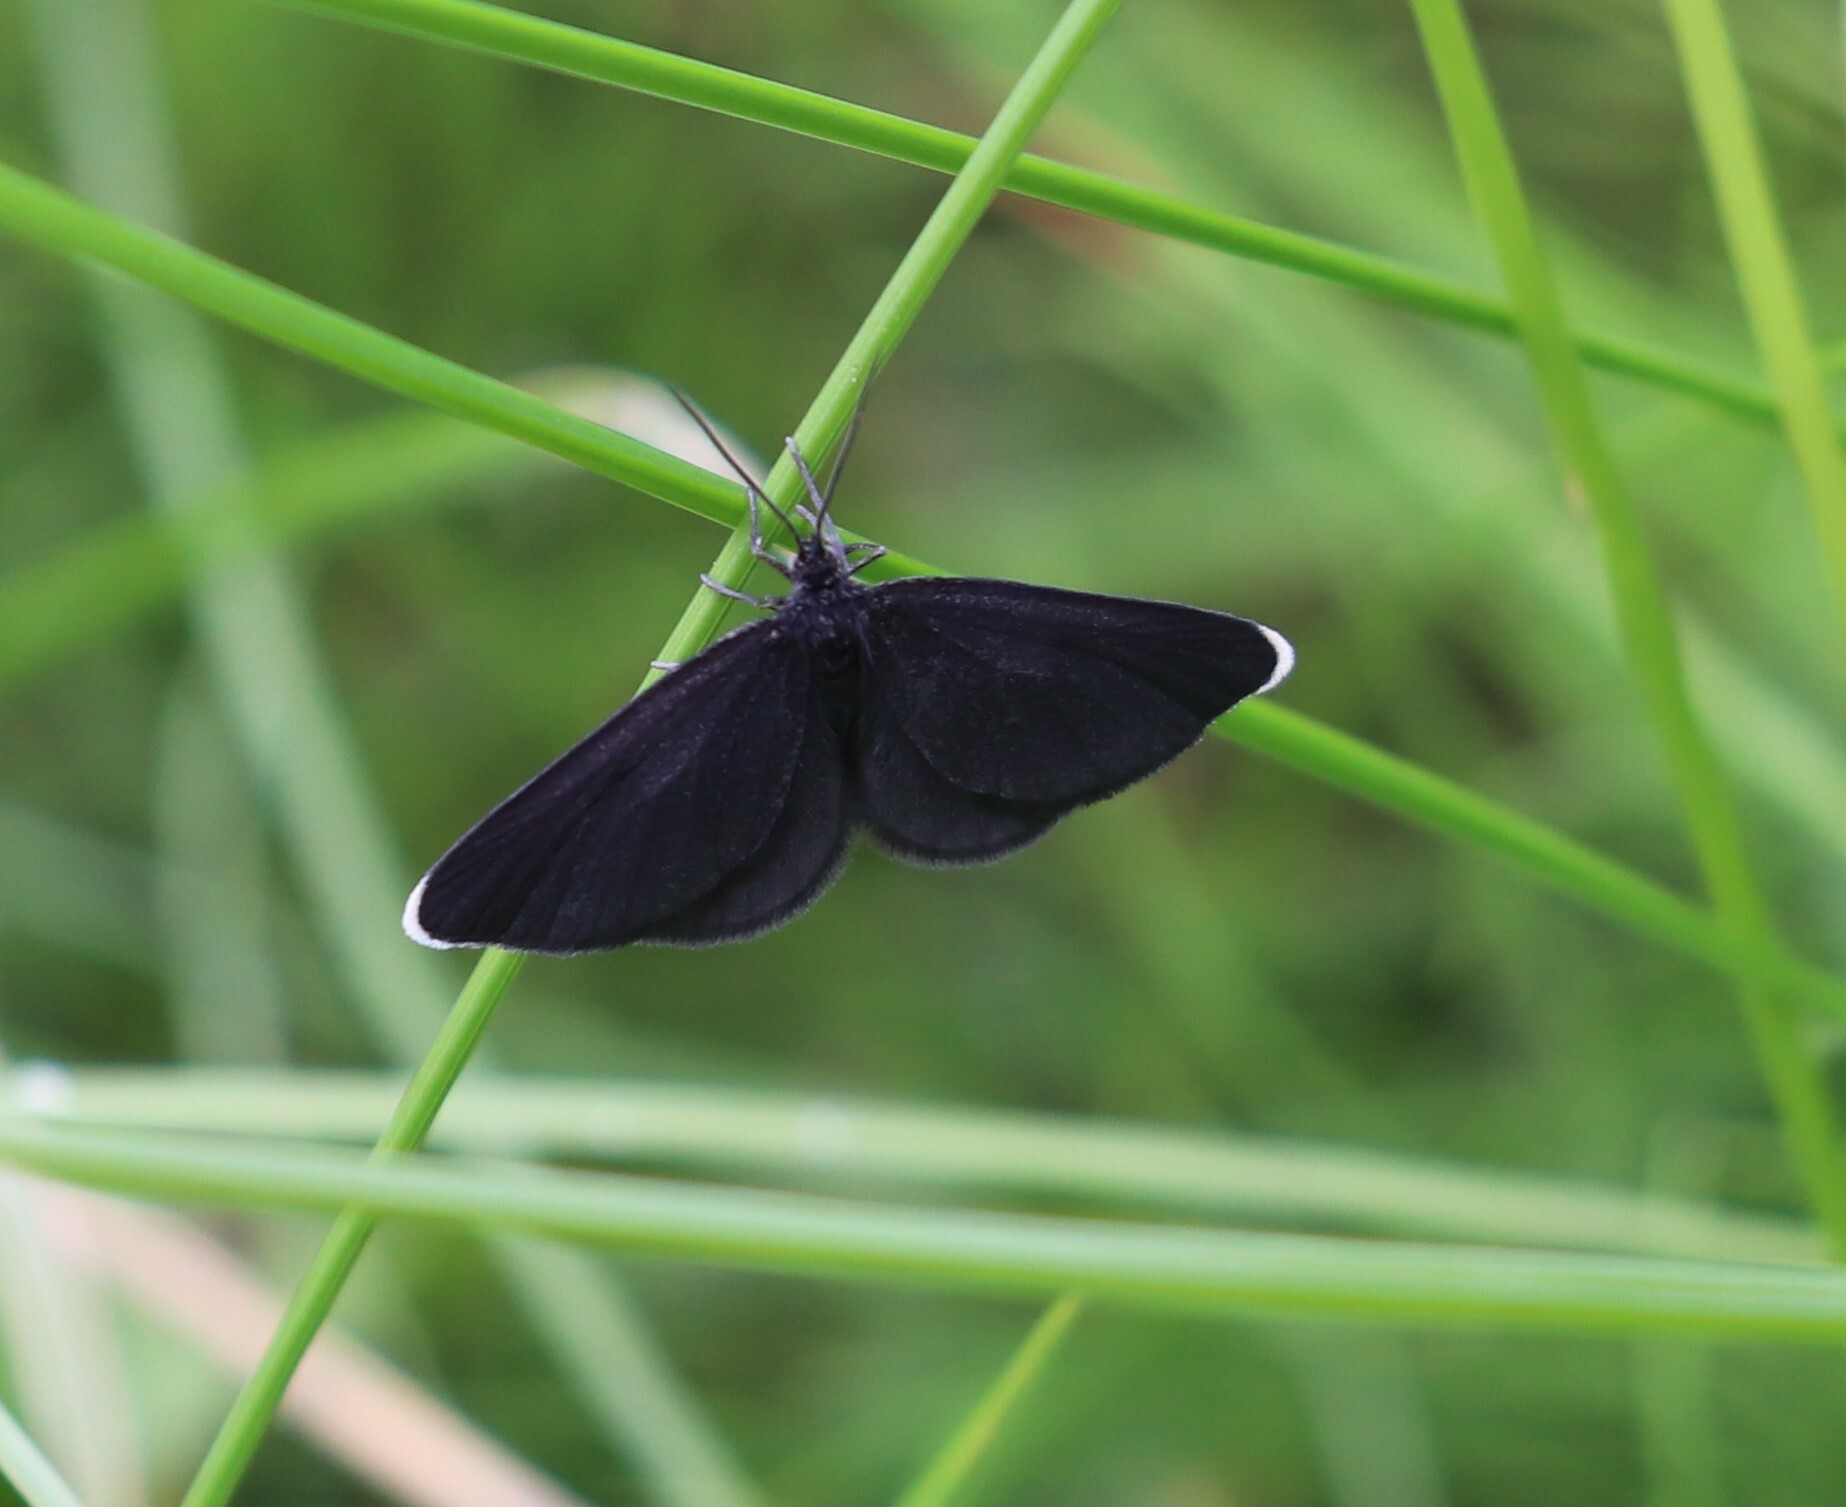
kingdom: Animalia
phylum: Arthropoda
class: Insecta
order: Lepidoptera
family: Geometridae
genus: Odezia
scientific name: Odezia atrata
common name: Chimney sweeper
